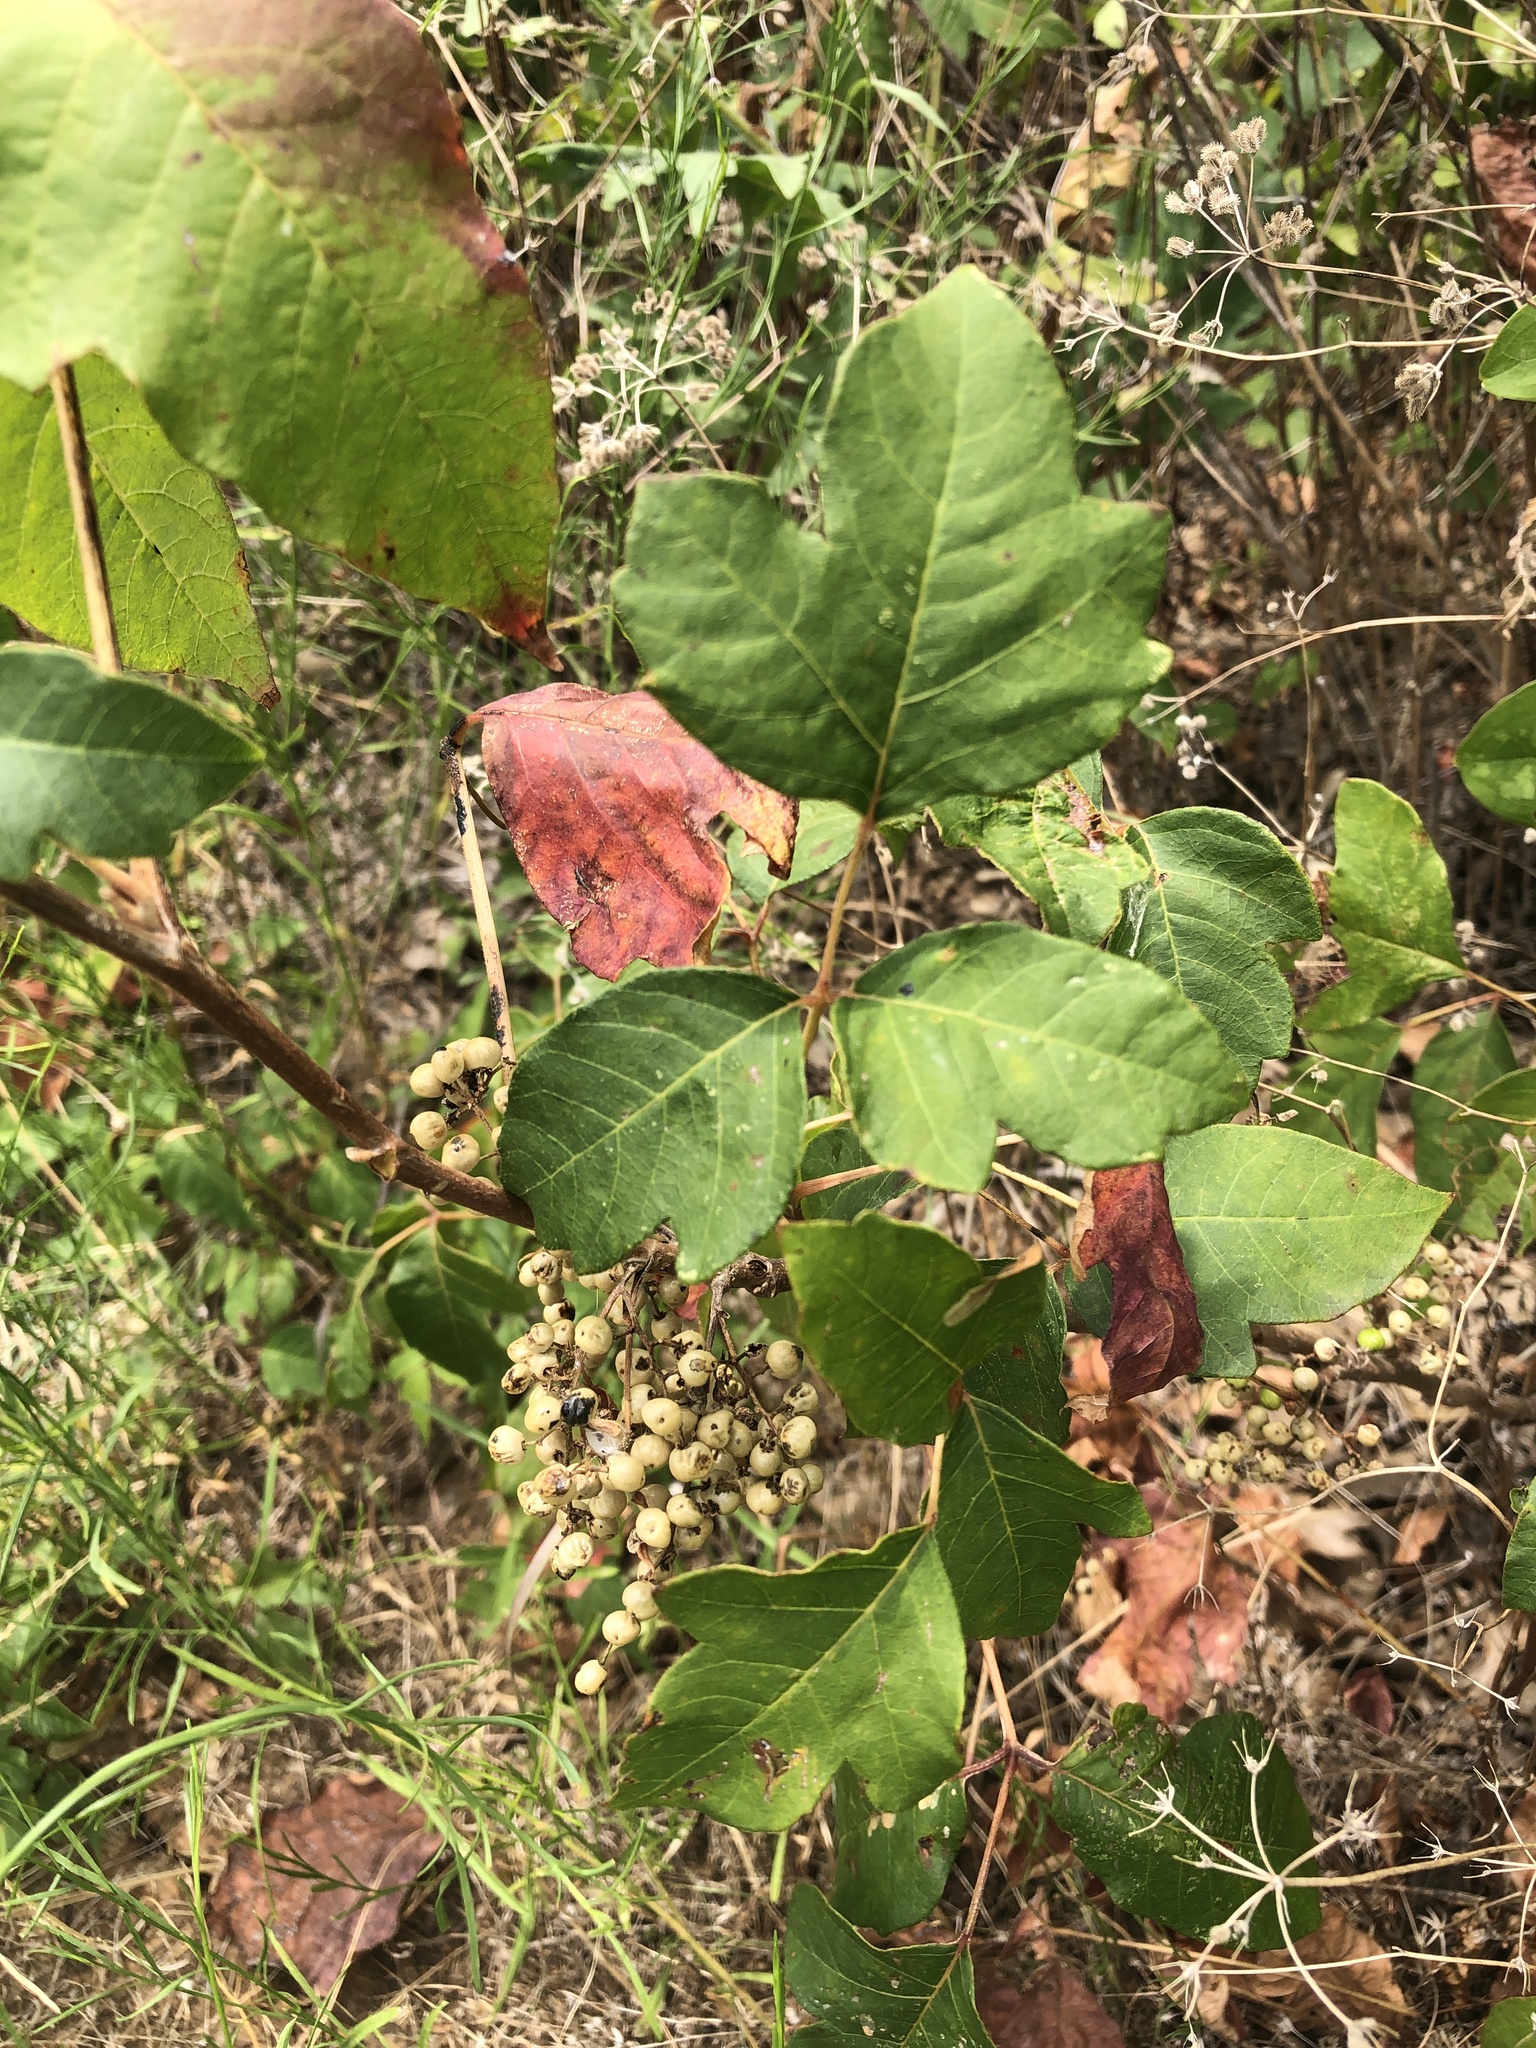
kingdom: Plantae
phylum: Tracheophyta
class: Magnoliopsida
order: Sapindales
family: Anacardiaceae
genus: Toxicodendron
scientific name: Toxicodendron radicans
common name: Poison ivy
